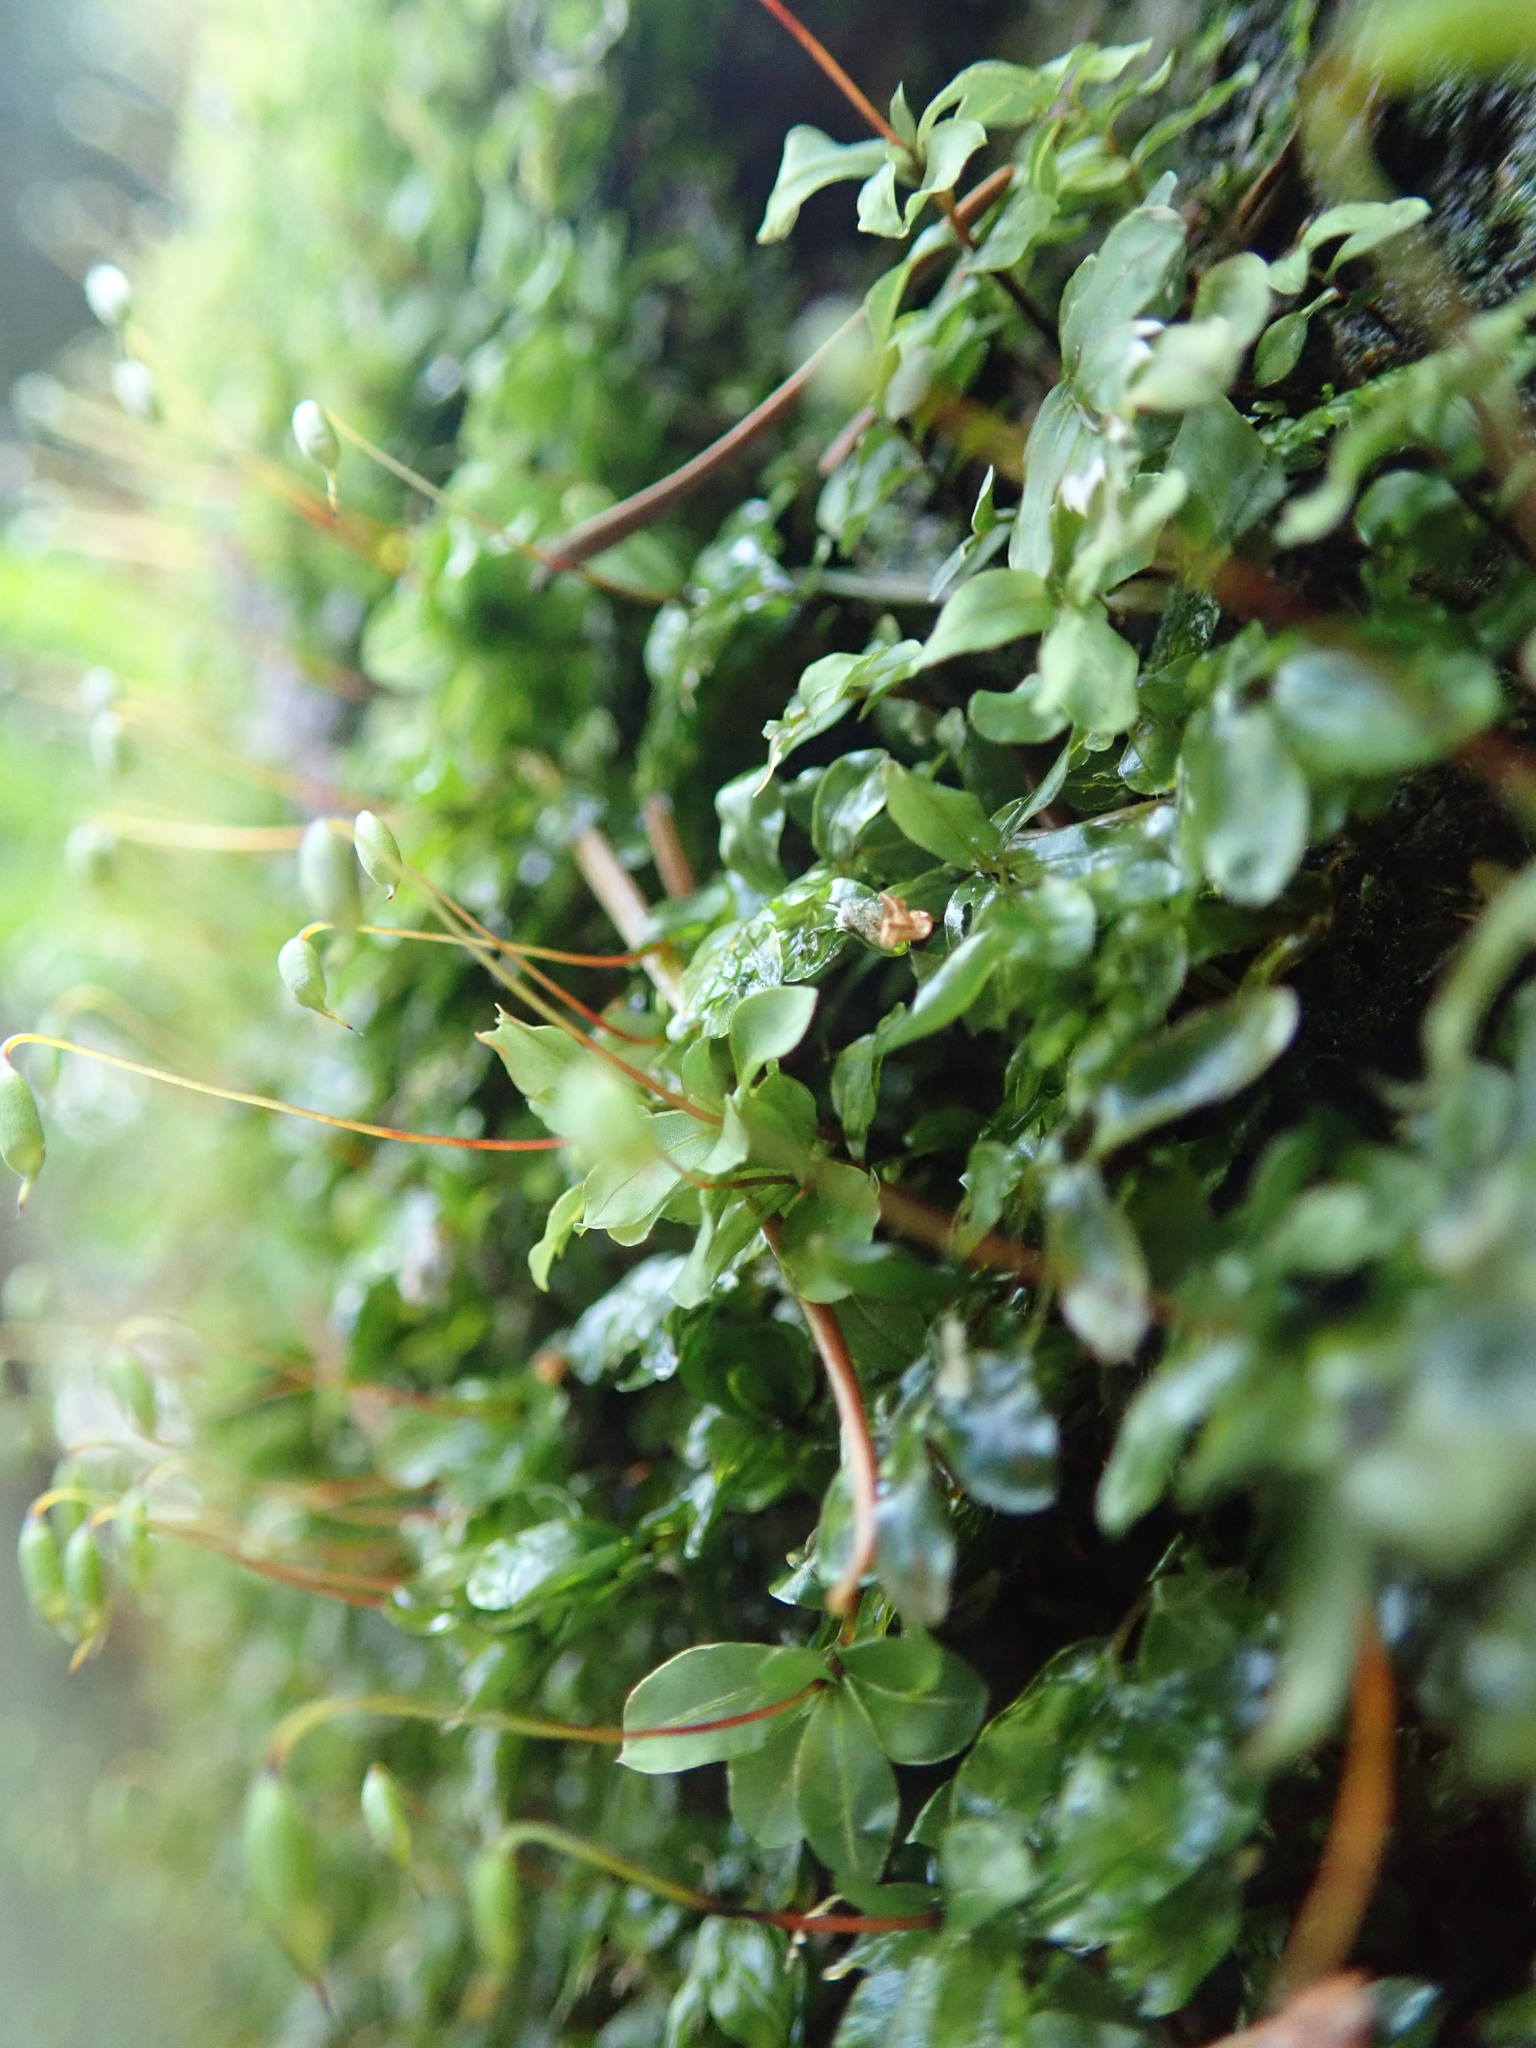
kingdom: Plantae
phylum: Bryophyta
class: Bryopsida
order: Bryales
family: Mniaceae
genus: Rhizomnium
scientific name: Rhizomnium glabrescens
